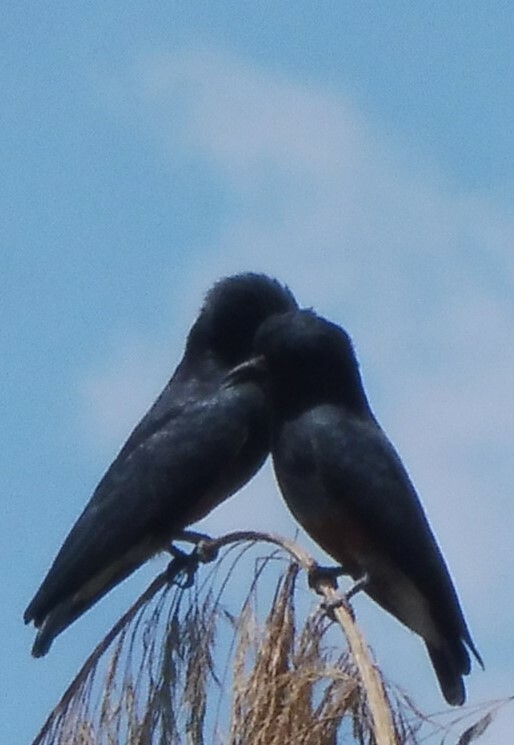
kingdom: Animalia
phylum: Chordata
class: Aves
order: Piciformes
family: Bucconidae
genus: Chelidoptera
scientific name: Chelidoptera tenebrosa
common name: Swallow-winged puffbird
